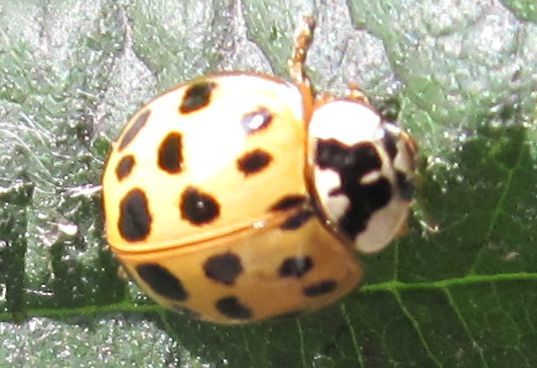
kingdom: Animalia
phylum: Arthropoda
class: Insecta
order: Coleoptera
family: Coccinellidae
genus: Harmonia
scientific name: Harmonia axyridis
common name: Harlequin ladybird
